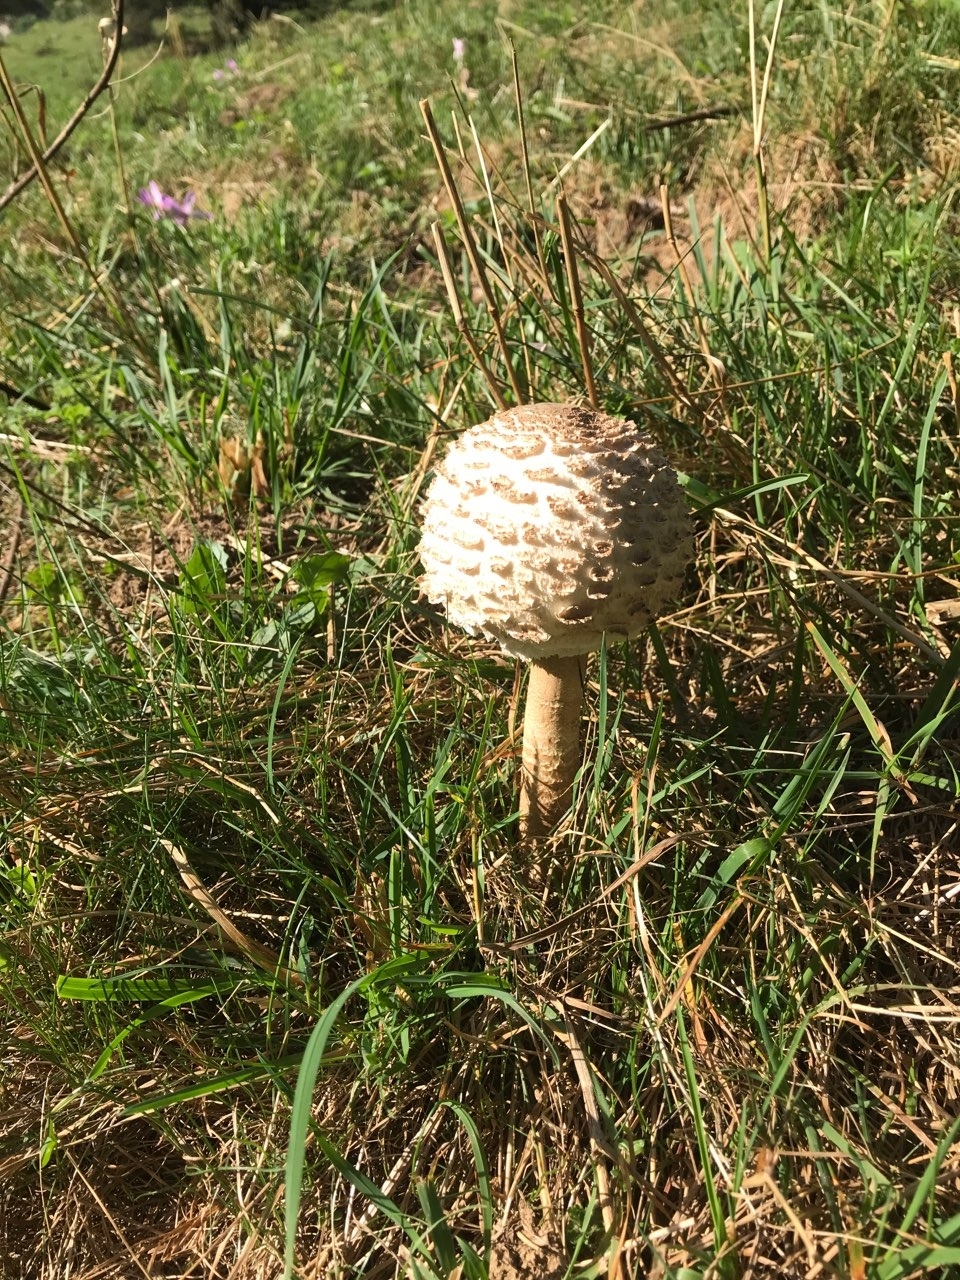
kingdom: Fungi
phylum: Basidiomycota
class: Agaricomycetes
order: Agaricales
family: Agaricaceae
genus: Macrolepiota
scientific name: Macrolepiota procera
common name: Parasol
